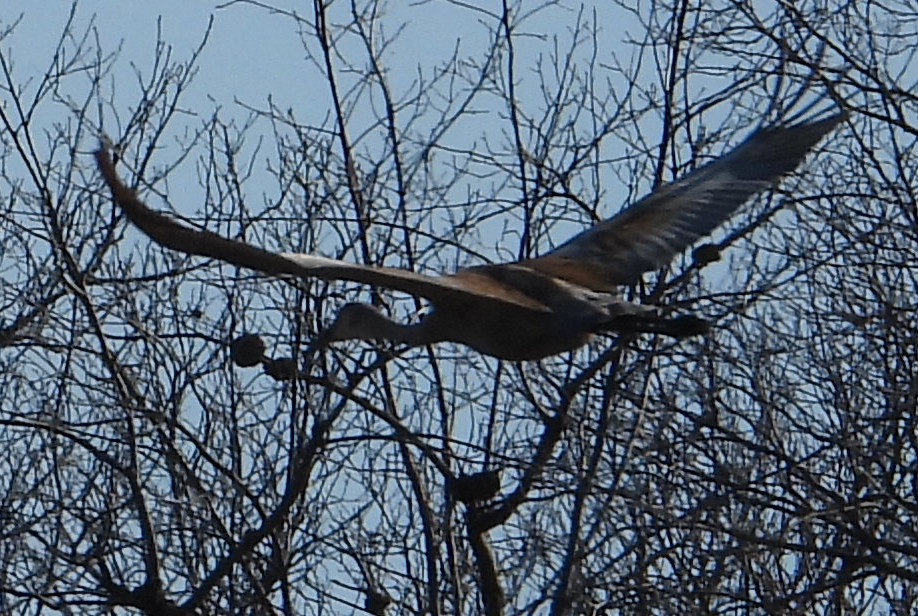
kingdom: Animalia
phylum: Chordata
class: Aves
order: Gruiformes
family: Gruidae
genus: Grus
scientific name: Grus canadensis
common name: Sandhill crane
